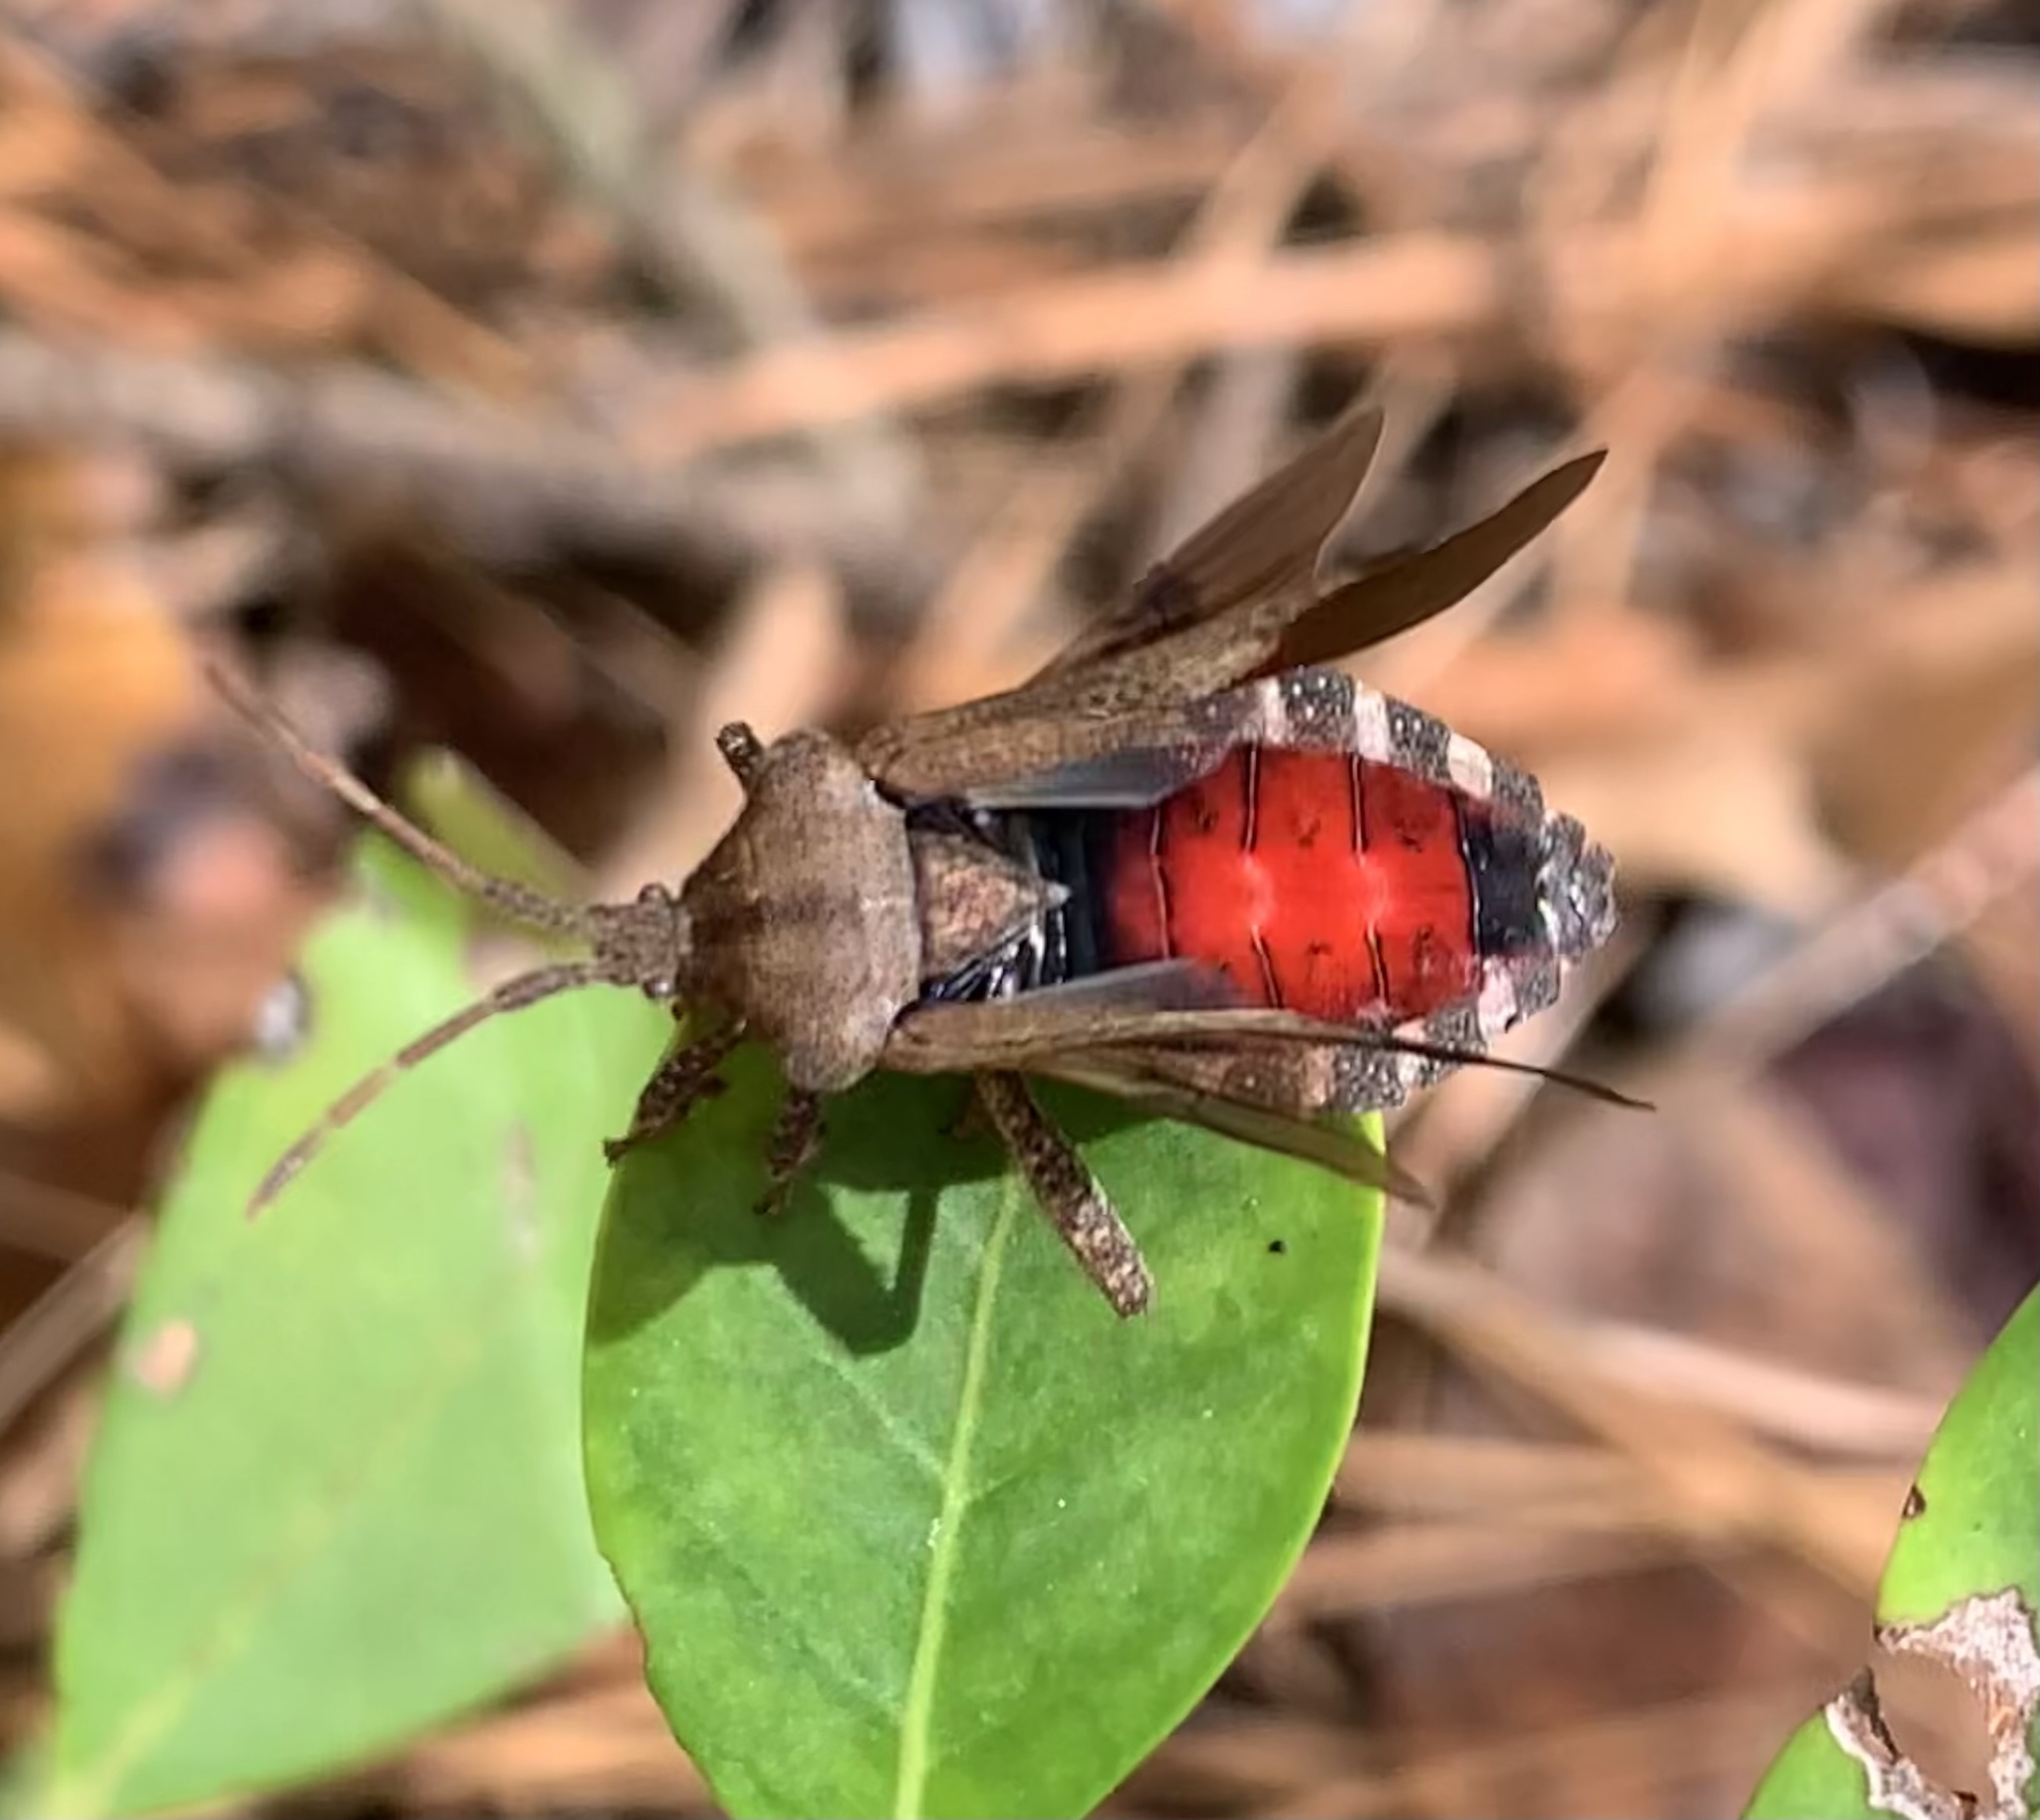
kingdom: Animalia
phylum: Arthropoda
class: Insecta
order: Hemiptera
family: Coreidae
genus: Piezogaster
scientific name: Piezogaster calcarator
